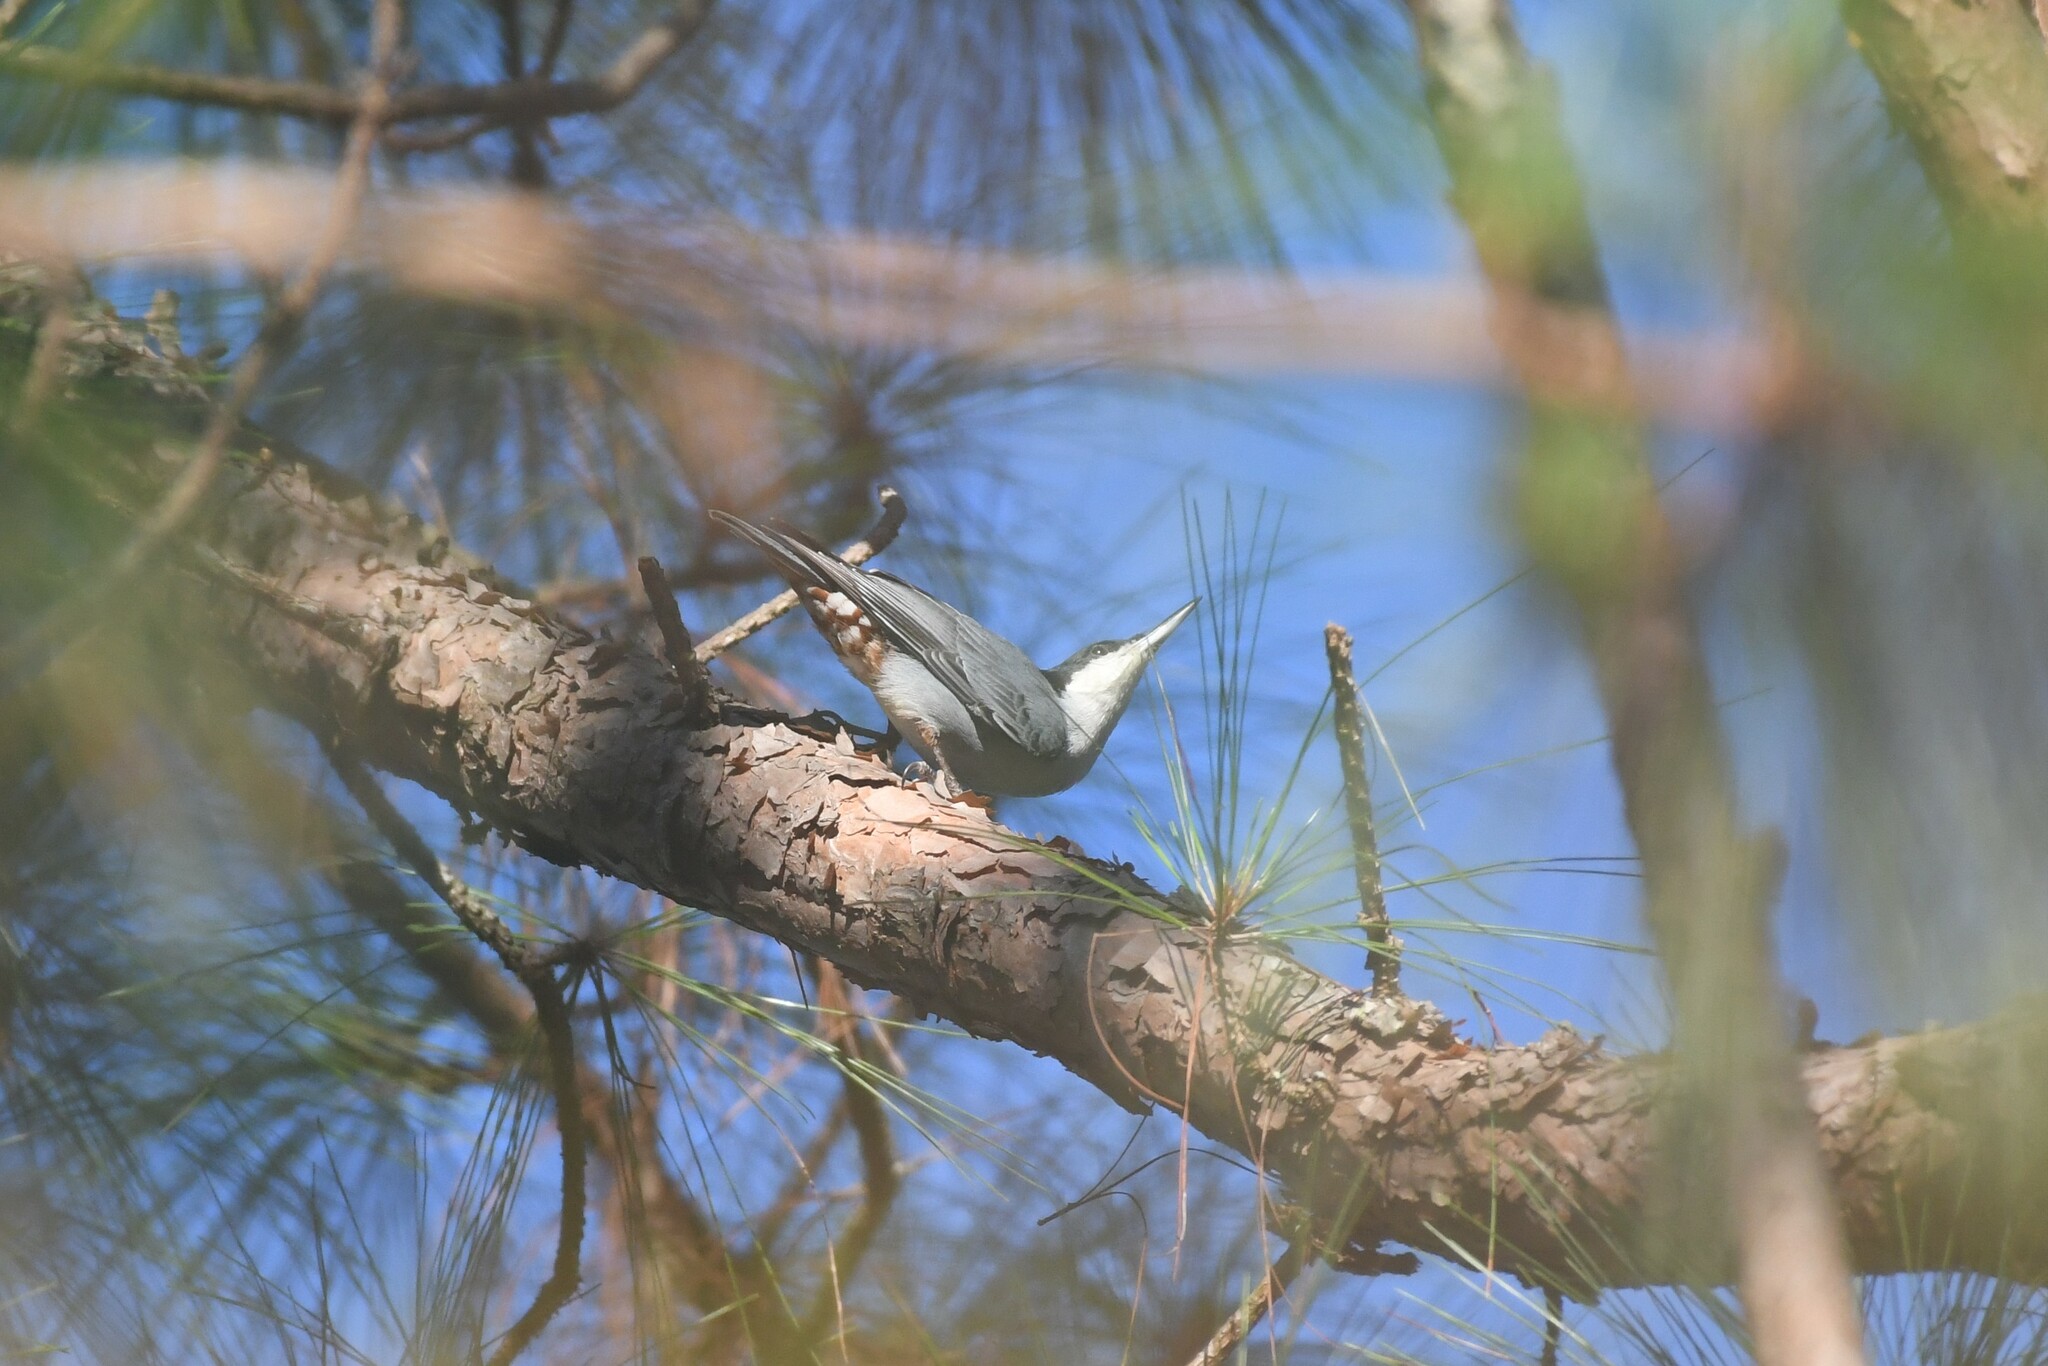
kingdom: Animalia
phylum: Chordata
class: Aves
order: Passeriformes
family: Sittidae
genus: Sitta
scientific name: Sitta magna
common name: Giant nuthatch
